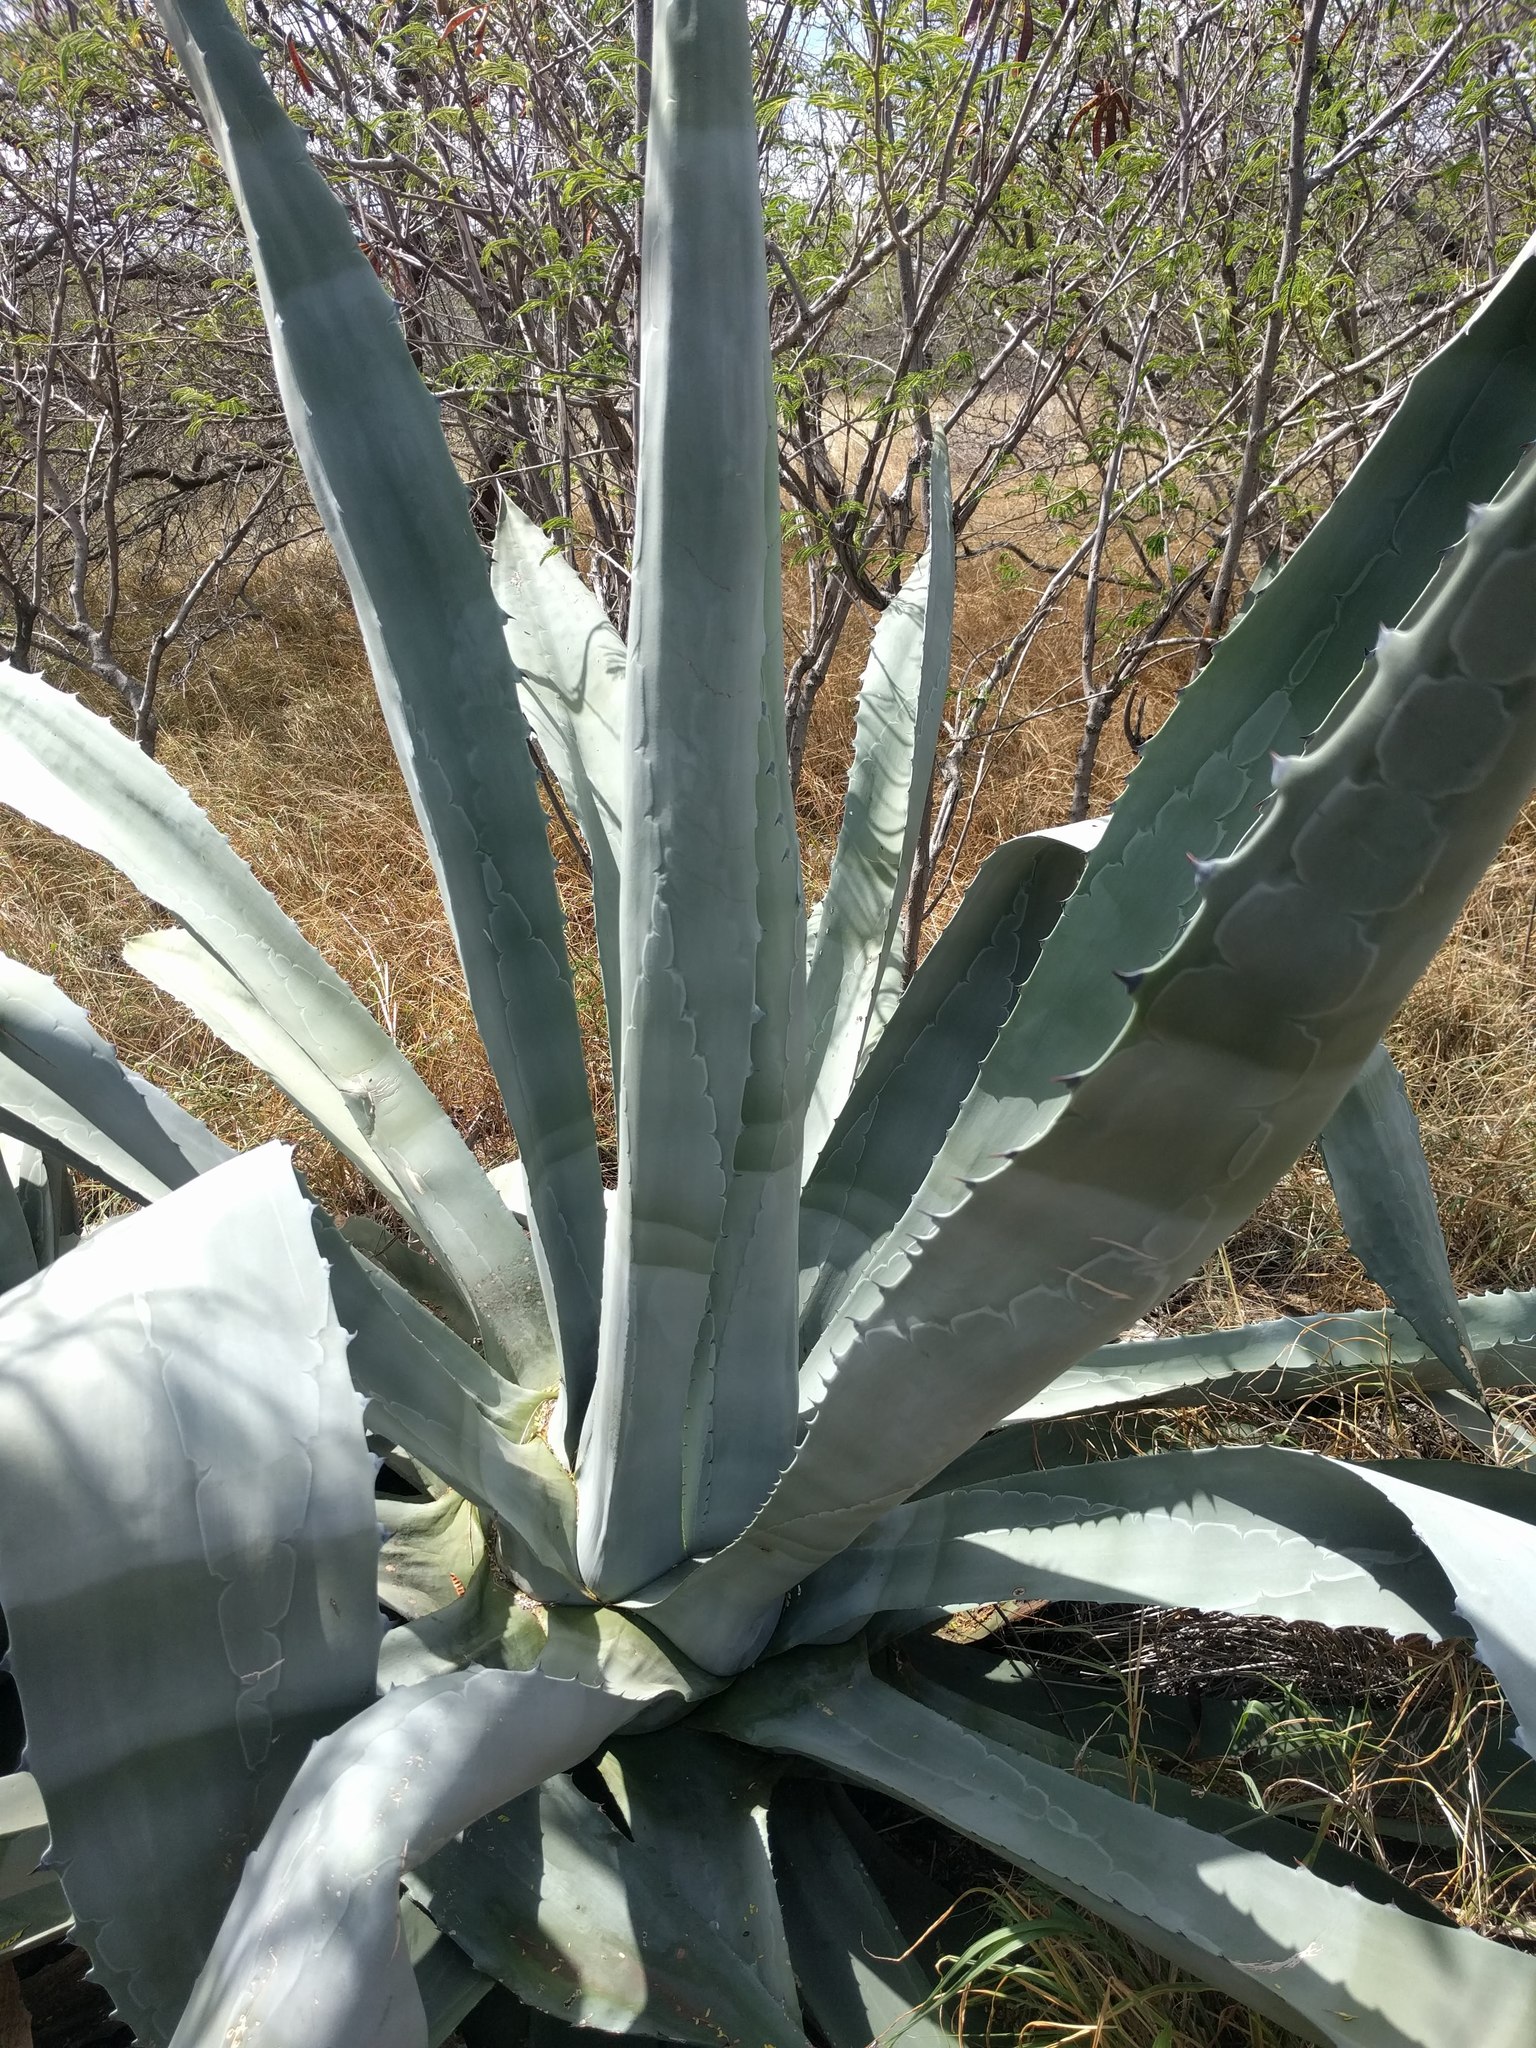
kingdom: Plantae
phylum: Tracheophyta
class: Liliopsida
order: Asparagales
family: Asparagaceae
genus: Agave
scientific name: Agave americana
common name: Centuryplant
